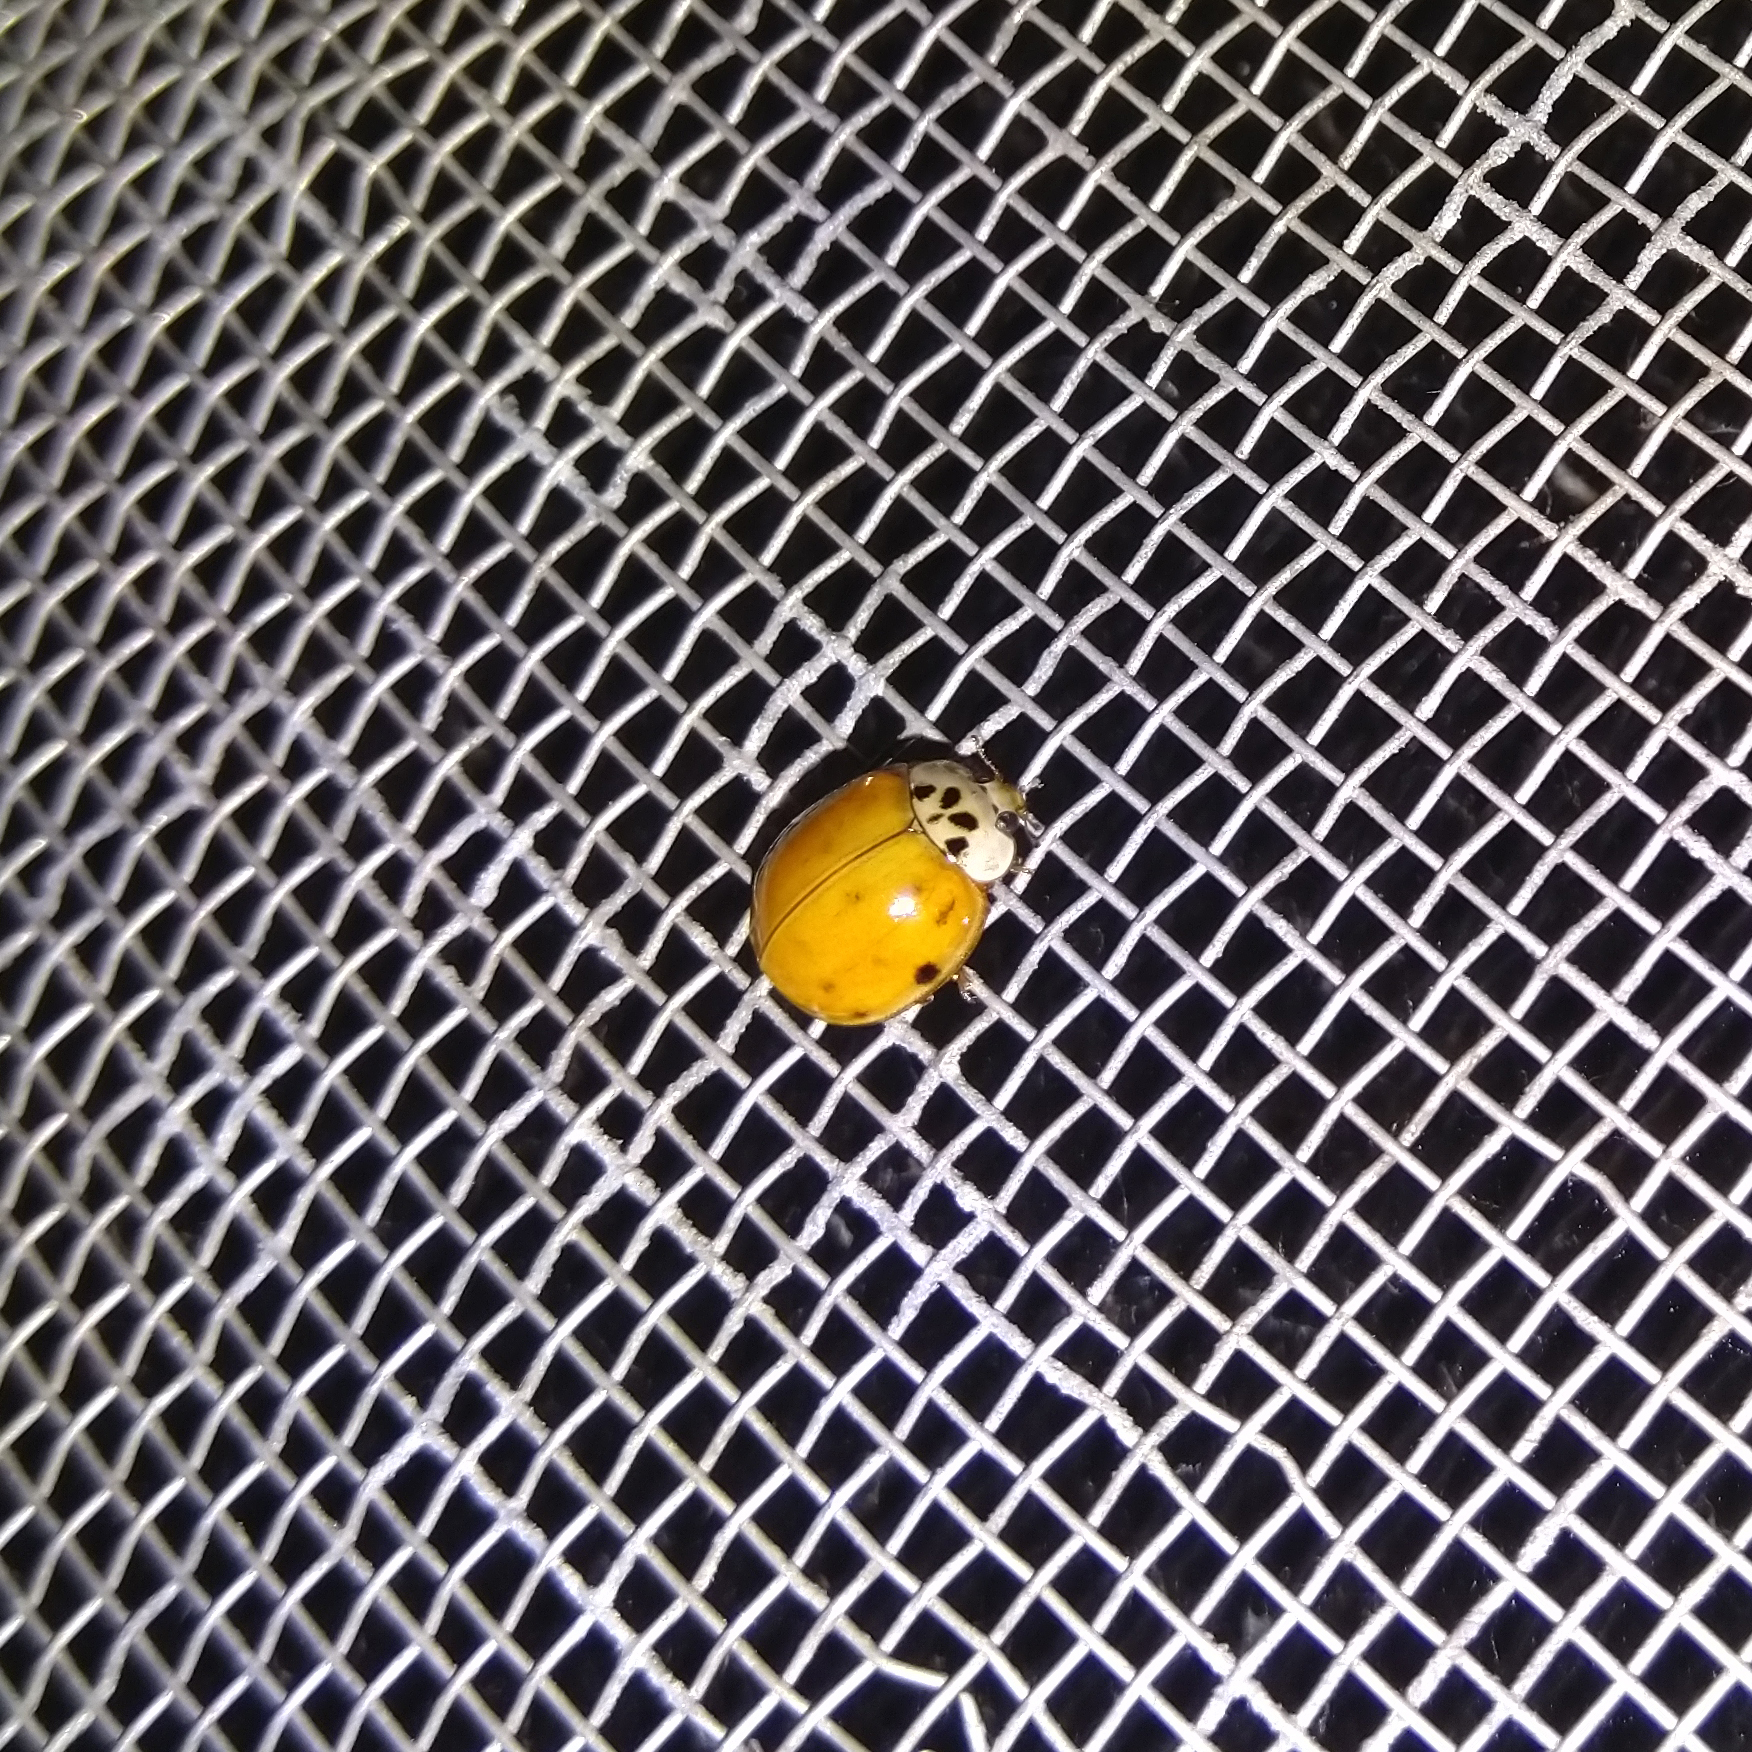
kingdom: Animalia
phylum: Arthropoda
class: Insecta
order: Coleoptera
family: Coccinellidae
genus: Harmonia
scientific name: Harmonia axyridis
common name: Harlequin ladybird
